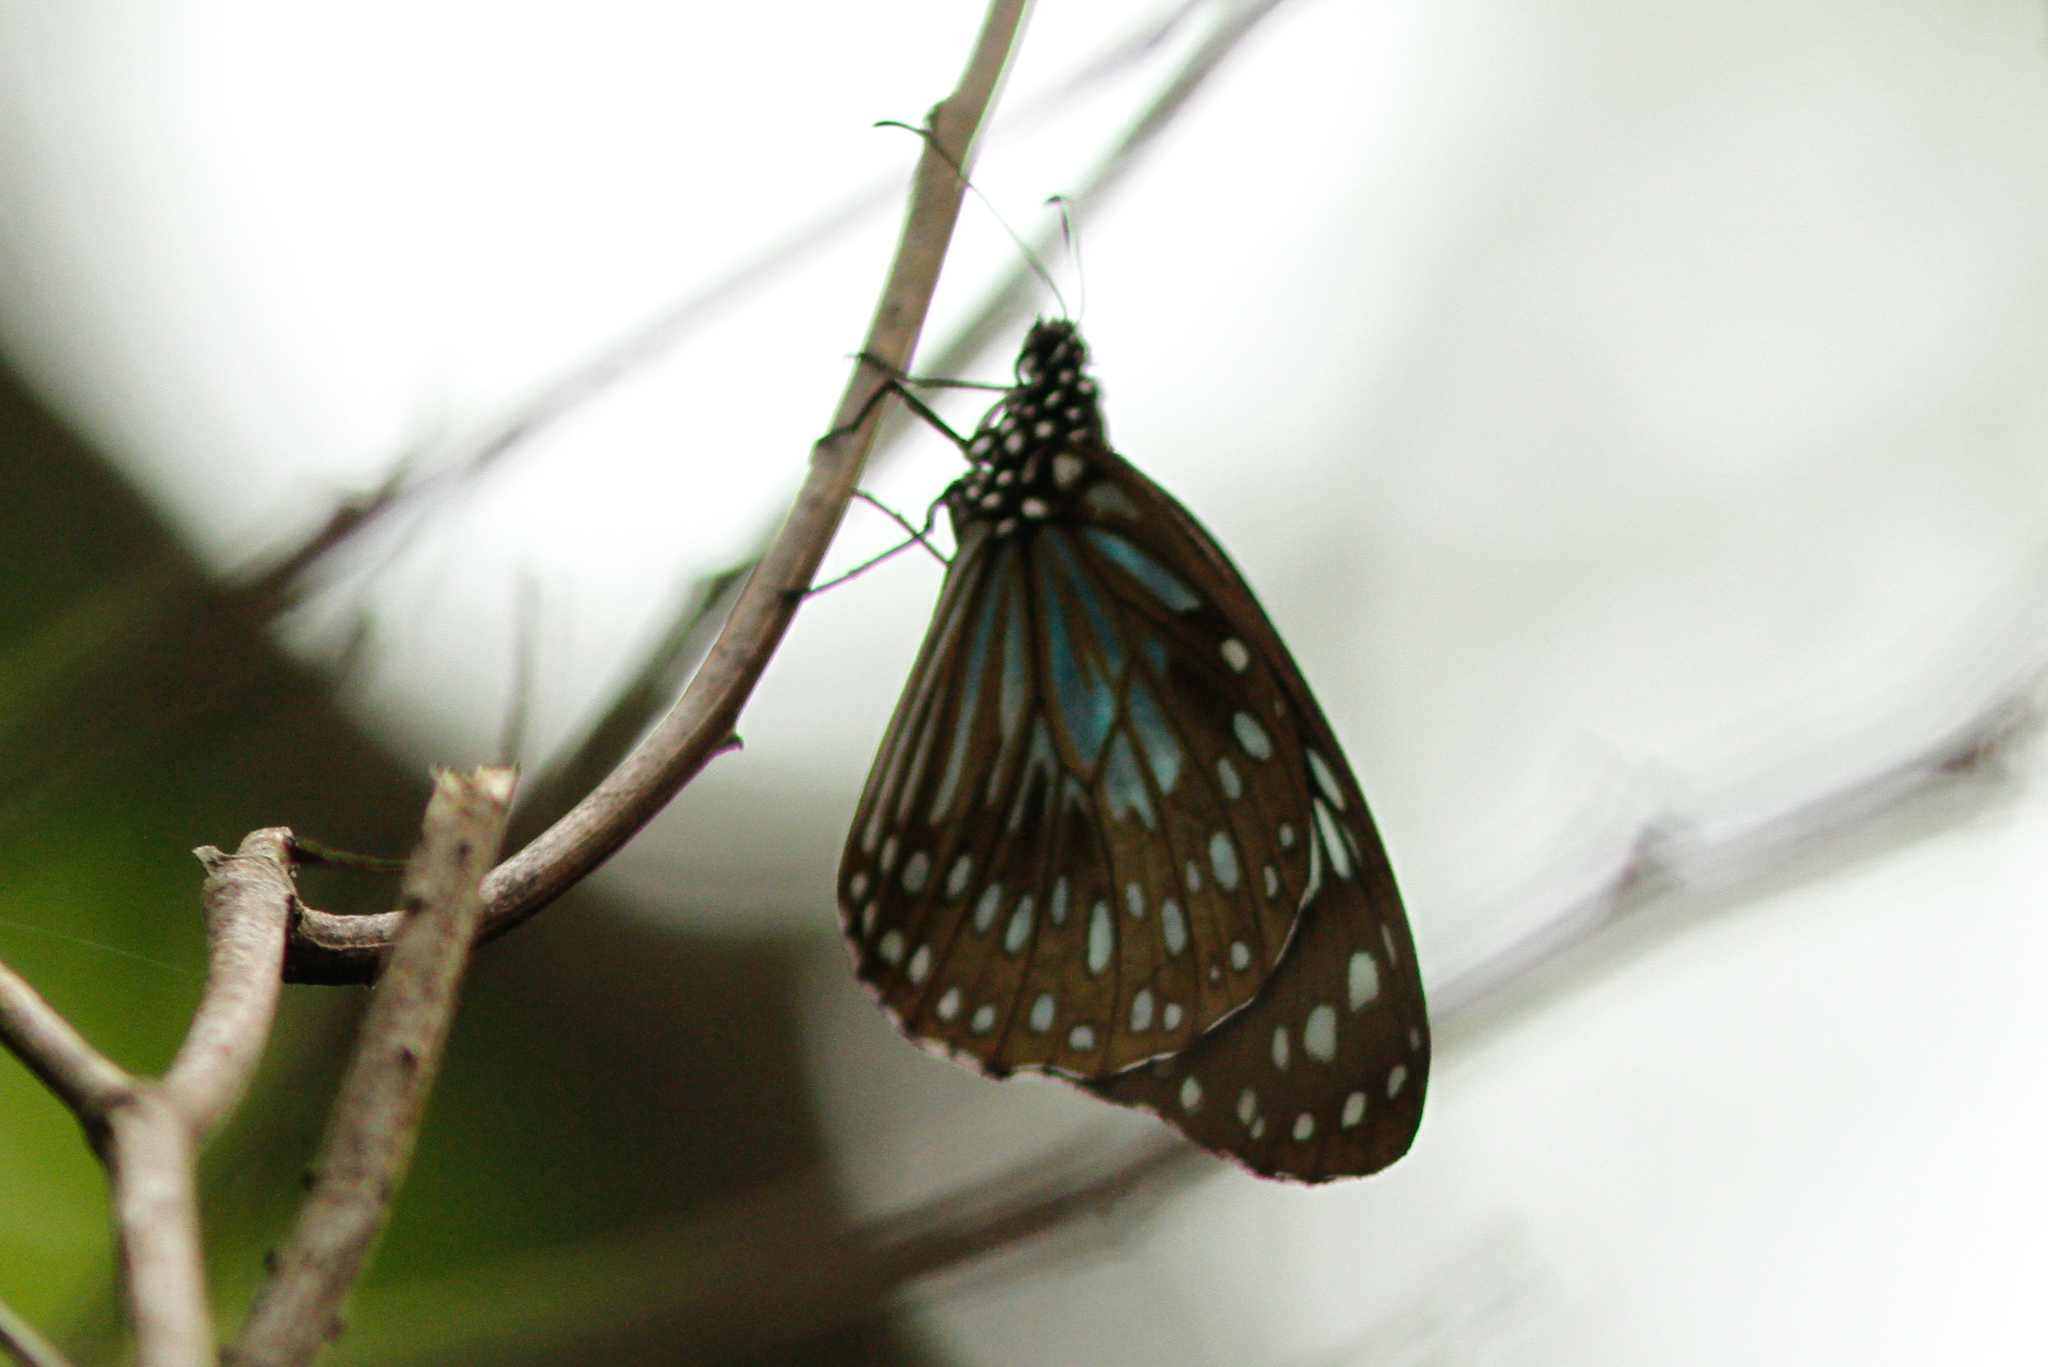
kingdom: Animalia
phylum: Arthropoda
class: Insecta
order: Lepidoptera
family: Nymphalidae
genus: Tirumala
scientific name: Tirumala hamata
